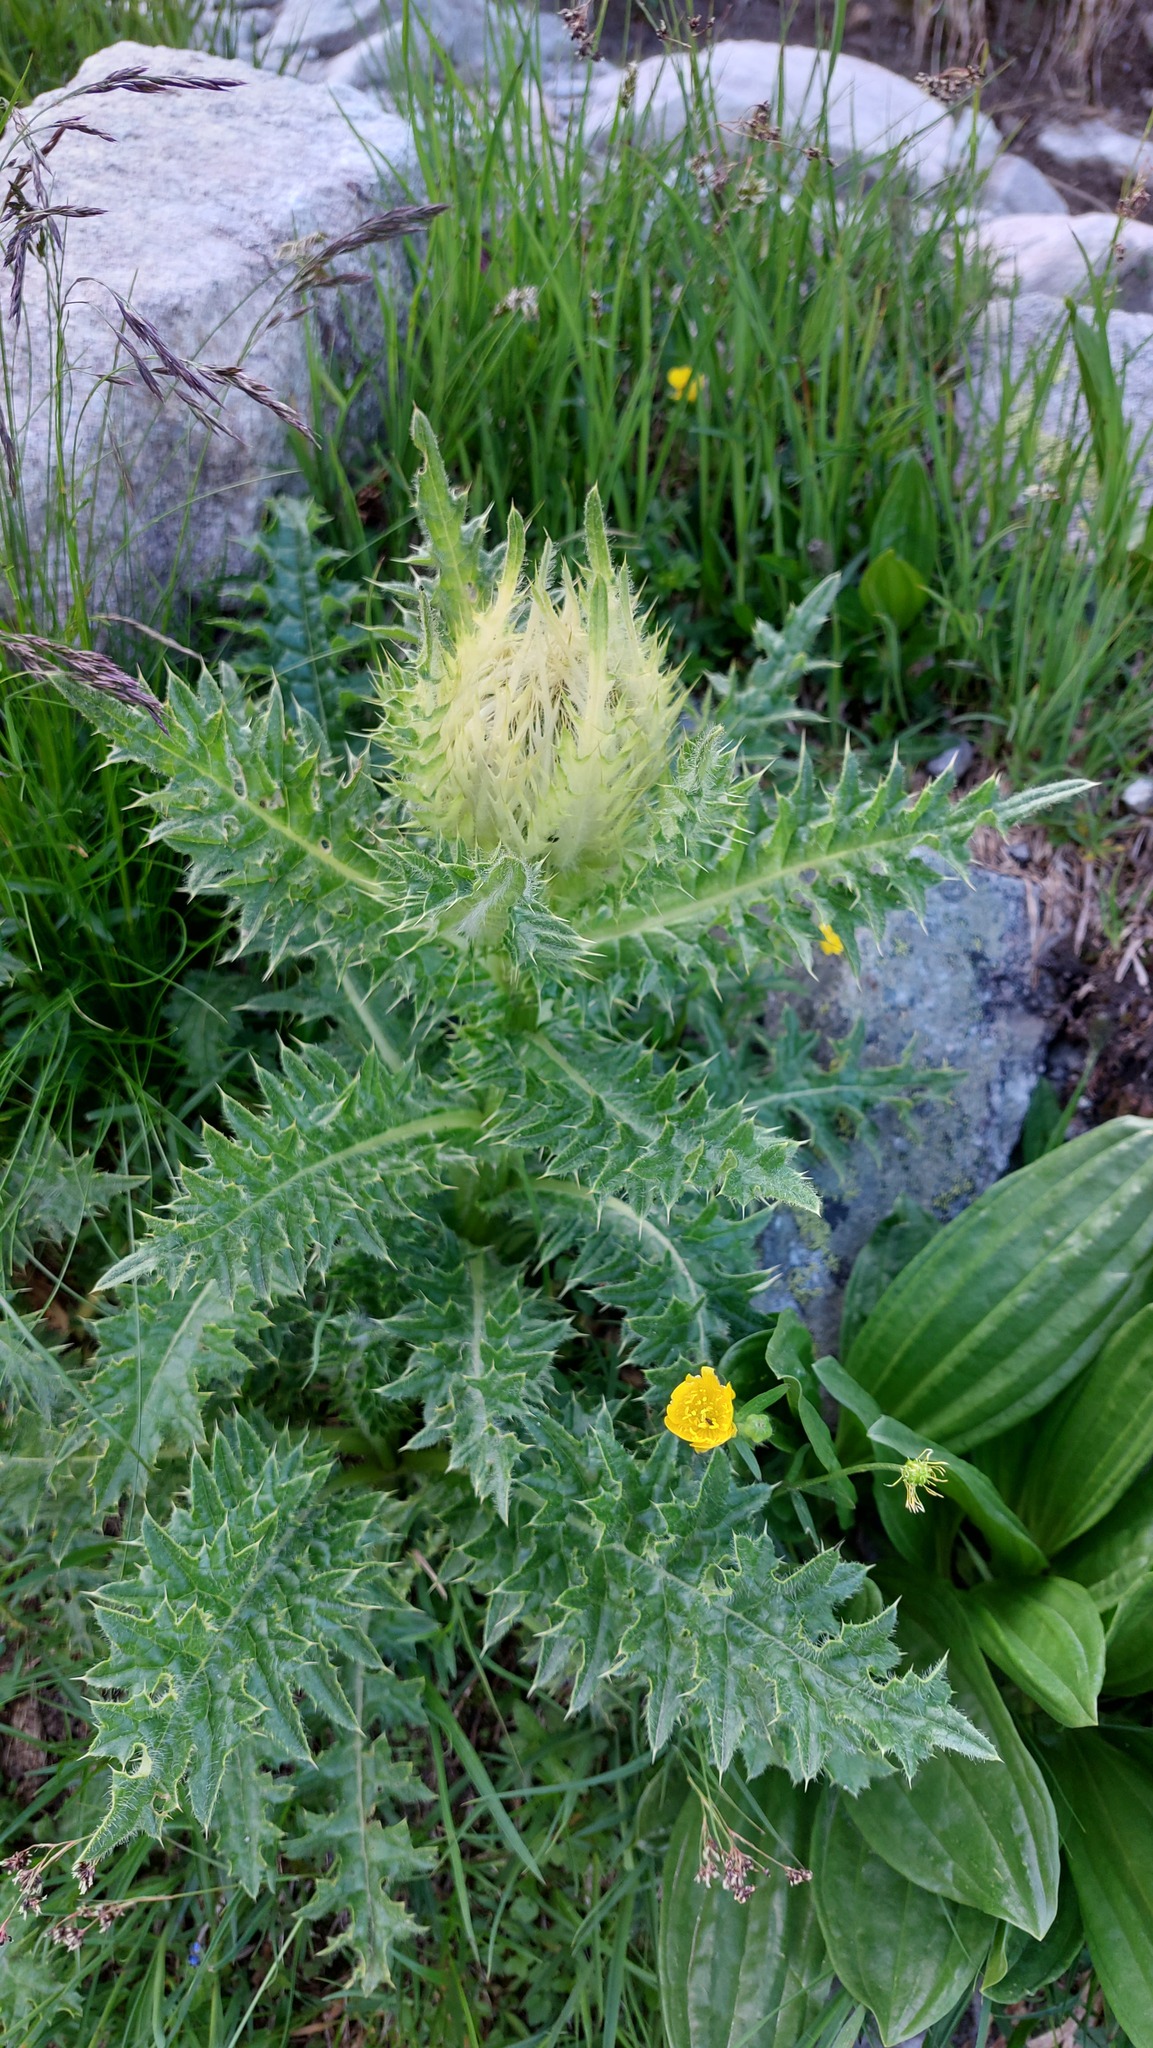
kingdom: Plantae
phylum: Tracheophyta
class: Magnoliopsida
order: Asterales
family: Asteraceae
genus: Cirsium
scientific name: Cirsium spinosissimum
